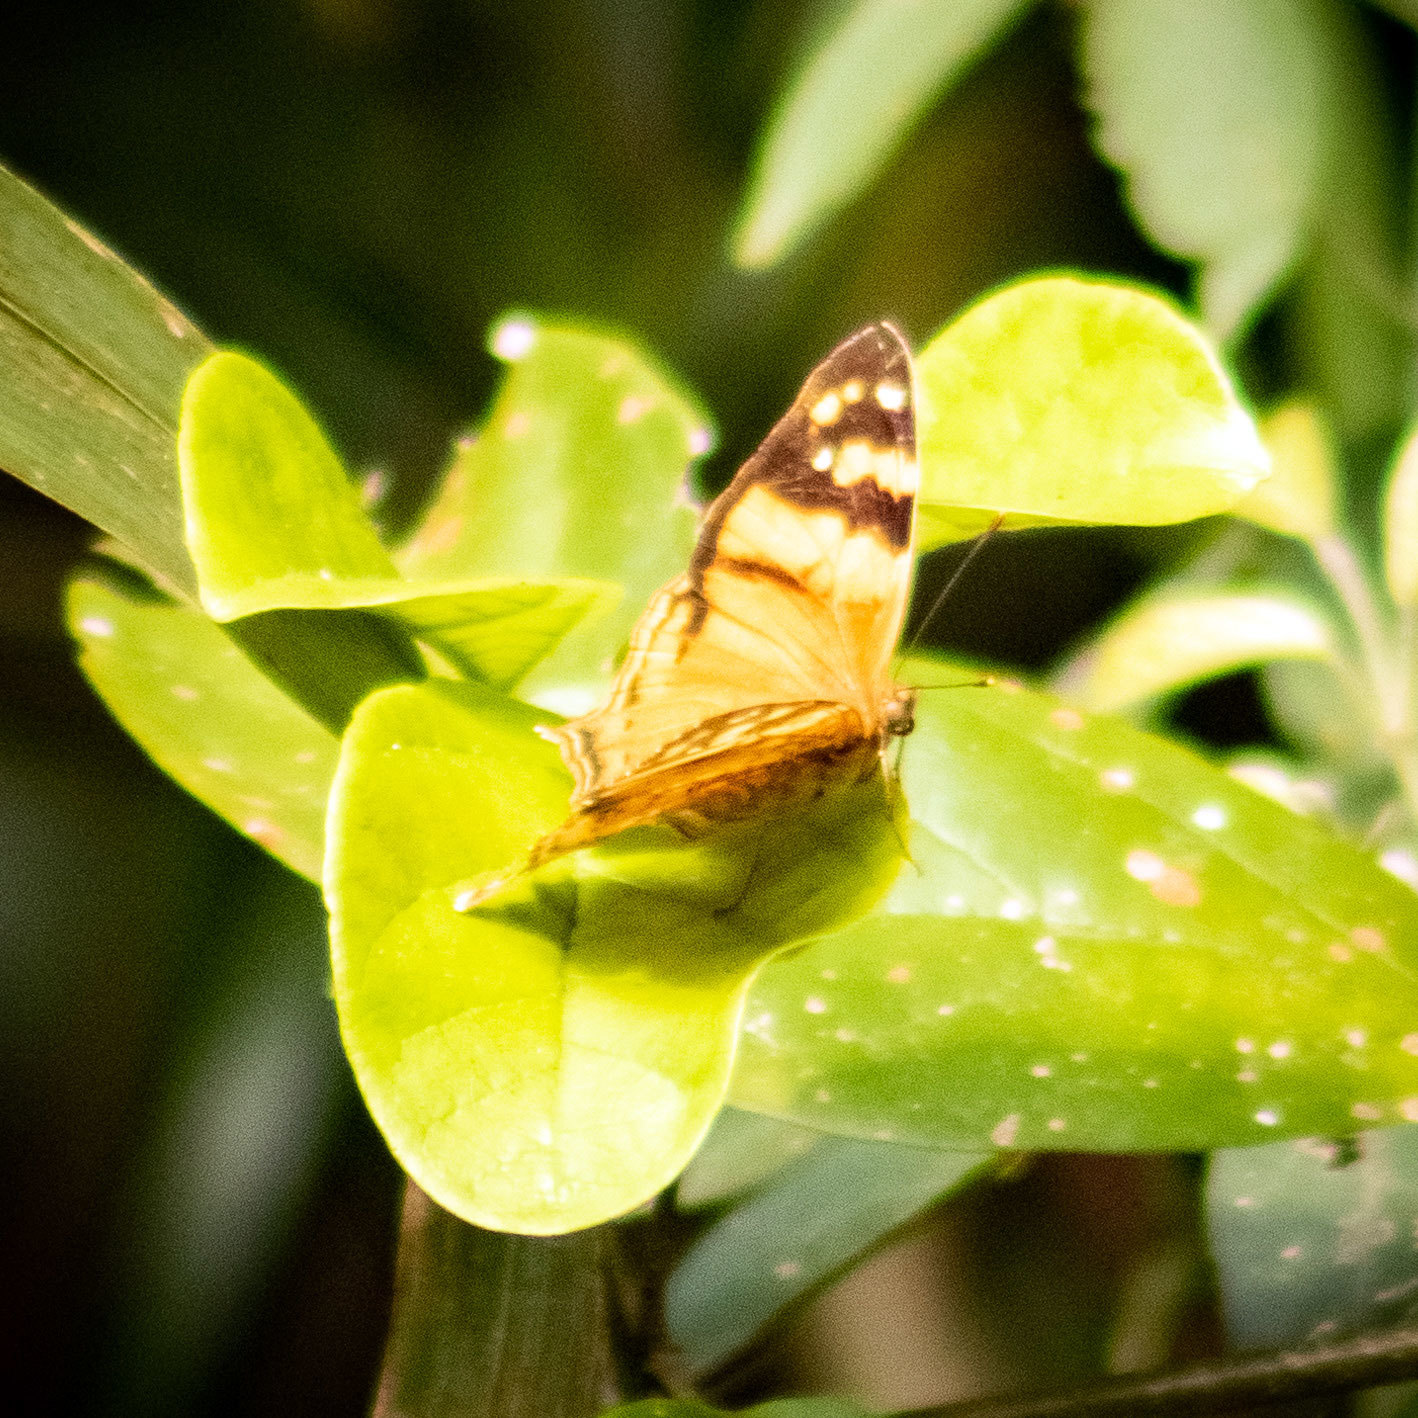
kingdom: Animalia
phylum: Arthropoda
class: Insecta
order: Lepidoptera
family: Nymphalidae
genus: Hypanartia
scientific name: Hypanartia lethe
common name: Orange mapwing
